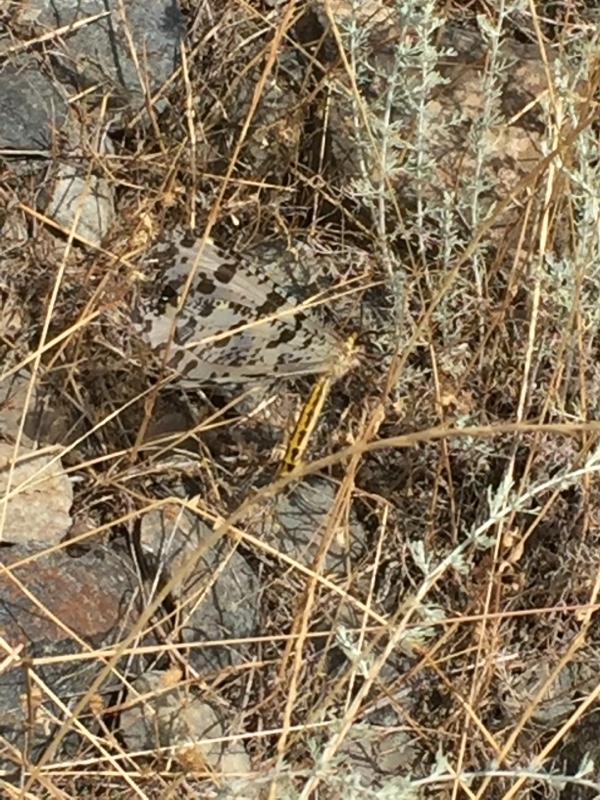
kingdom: Animalia
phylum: Arthropoda
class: Insecta
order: Neuroptera
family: Myrmeleontidae
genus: Palpares
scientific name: Palpares libelluloides
